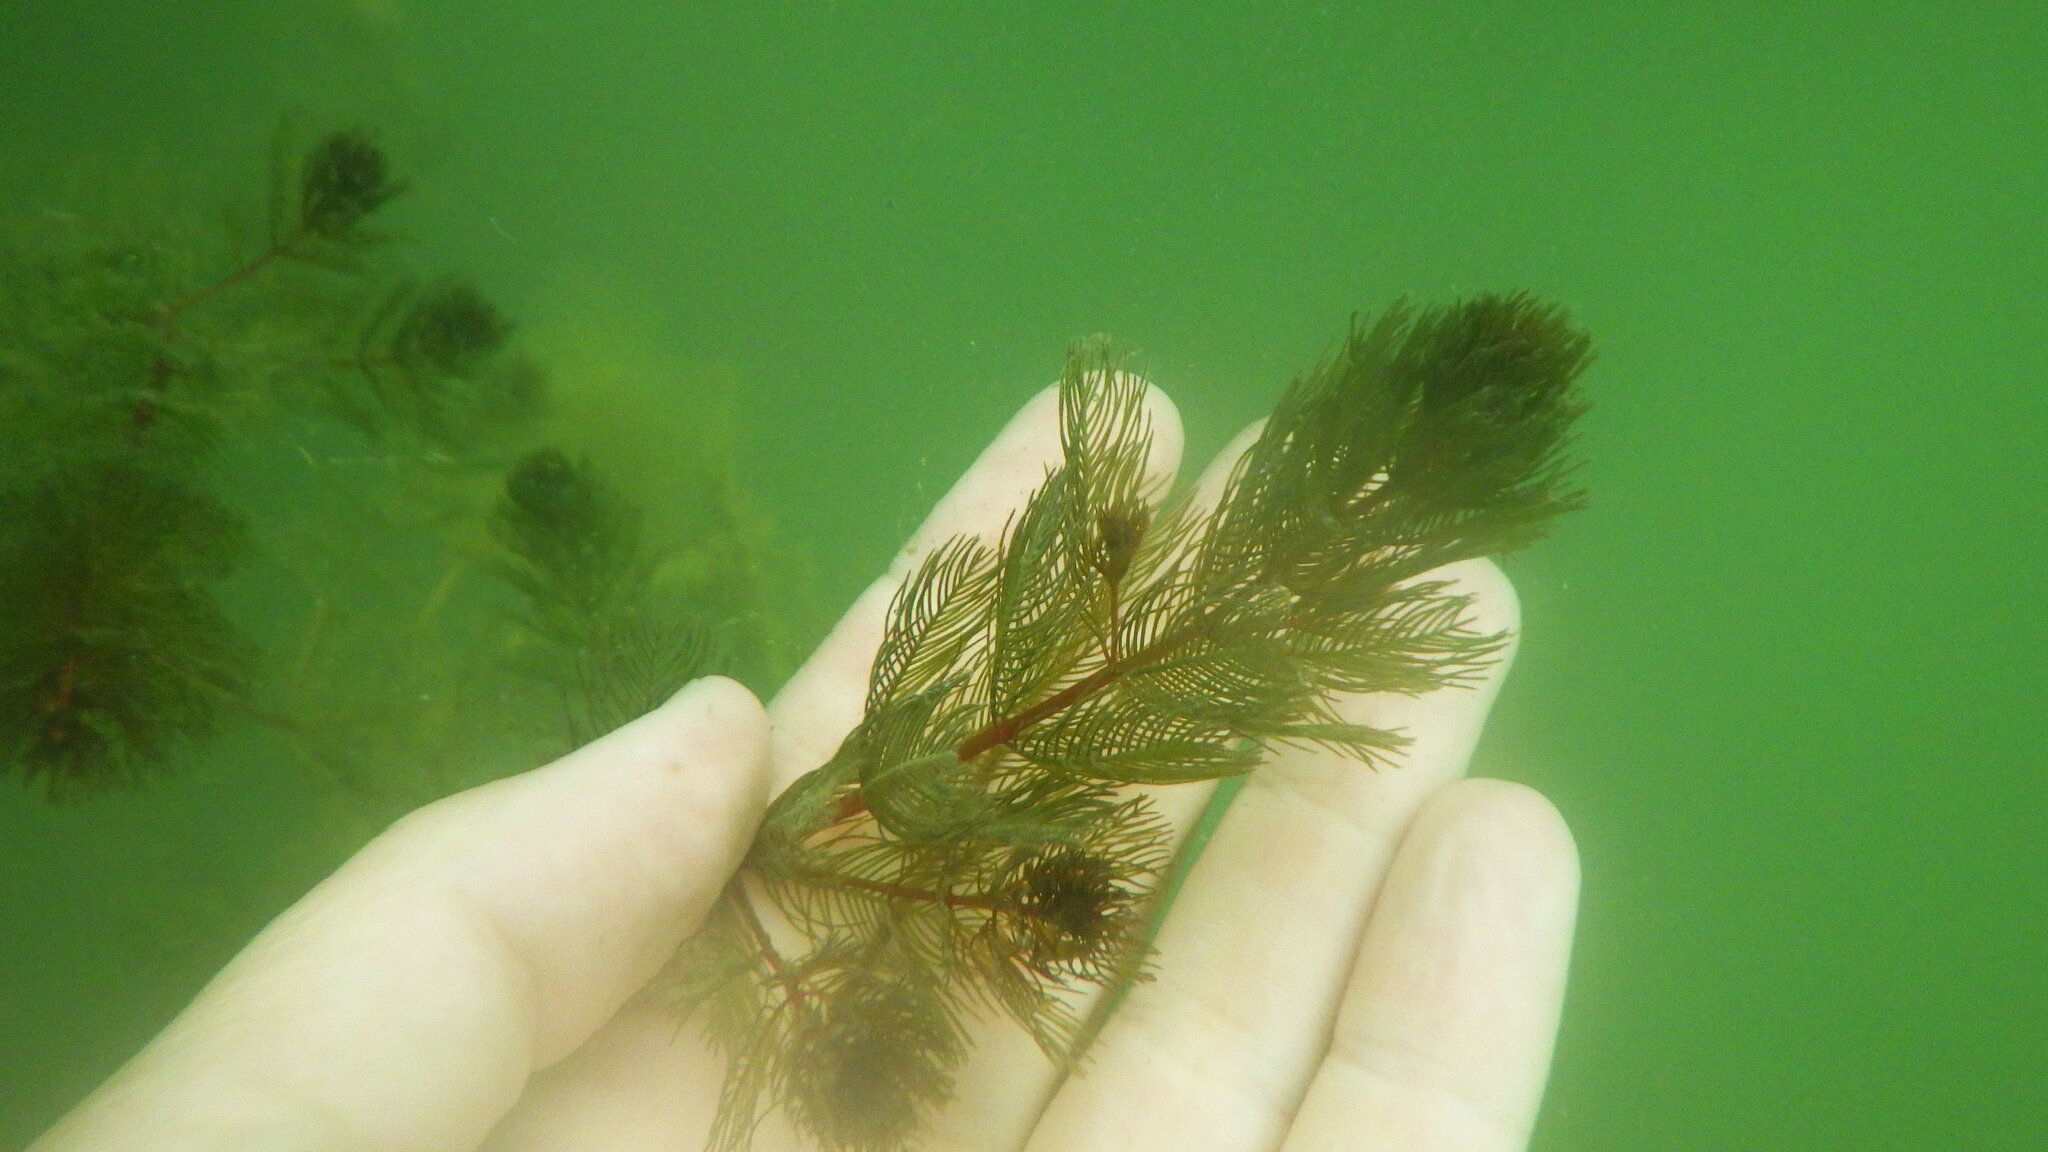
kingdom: Plantae
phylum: Tracheophyta
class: Magnoliopsida
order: Saxifragales
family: Haloragaceae
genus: Myriophyllum
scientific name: Myriophyllum spicatum
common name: Spiked water-milfoil
